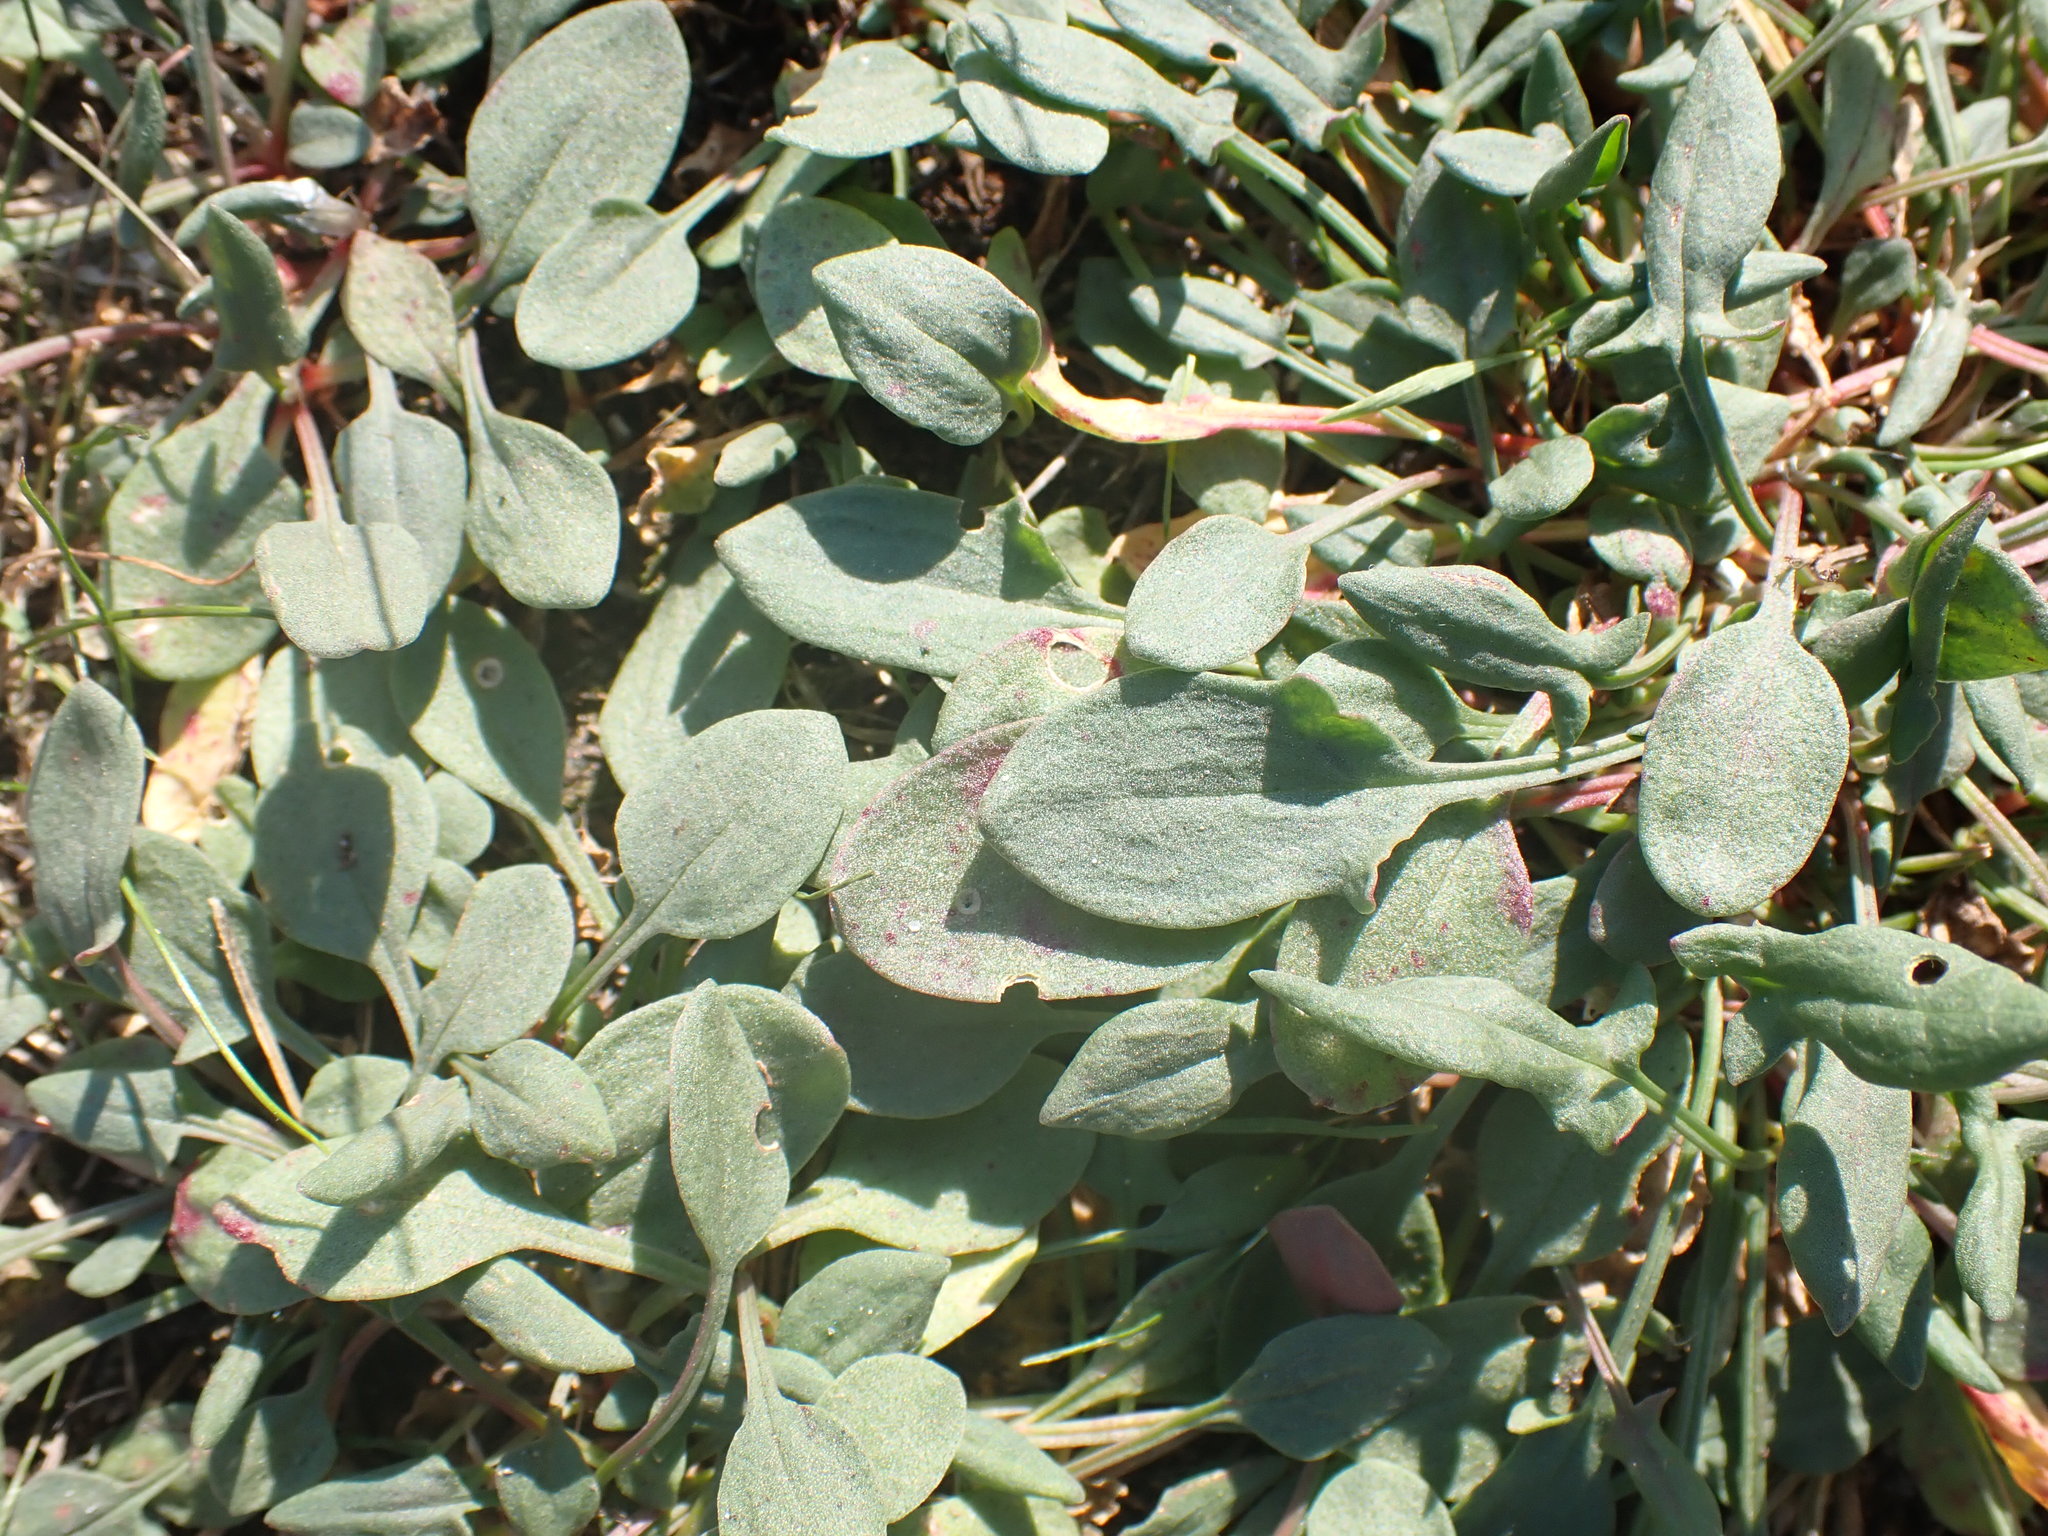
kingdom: Plantae
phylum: Tracheophyta
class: Magnoliopsida
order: Caryophyllales
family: Polygonaceae
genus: Rumex
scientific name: Rumex acetosella
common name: Common sheep sorrel
